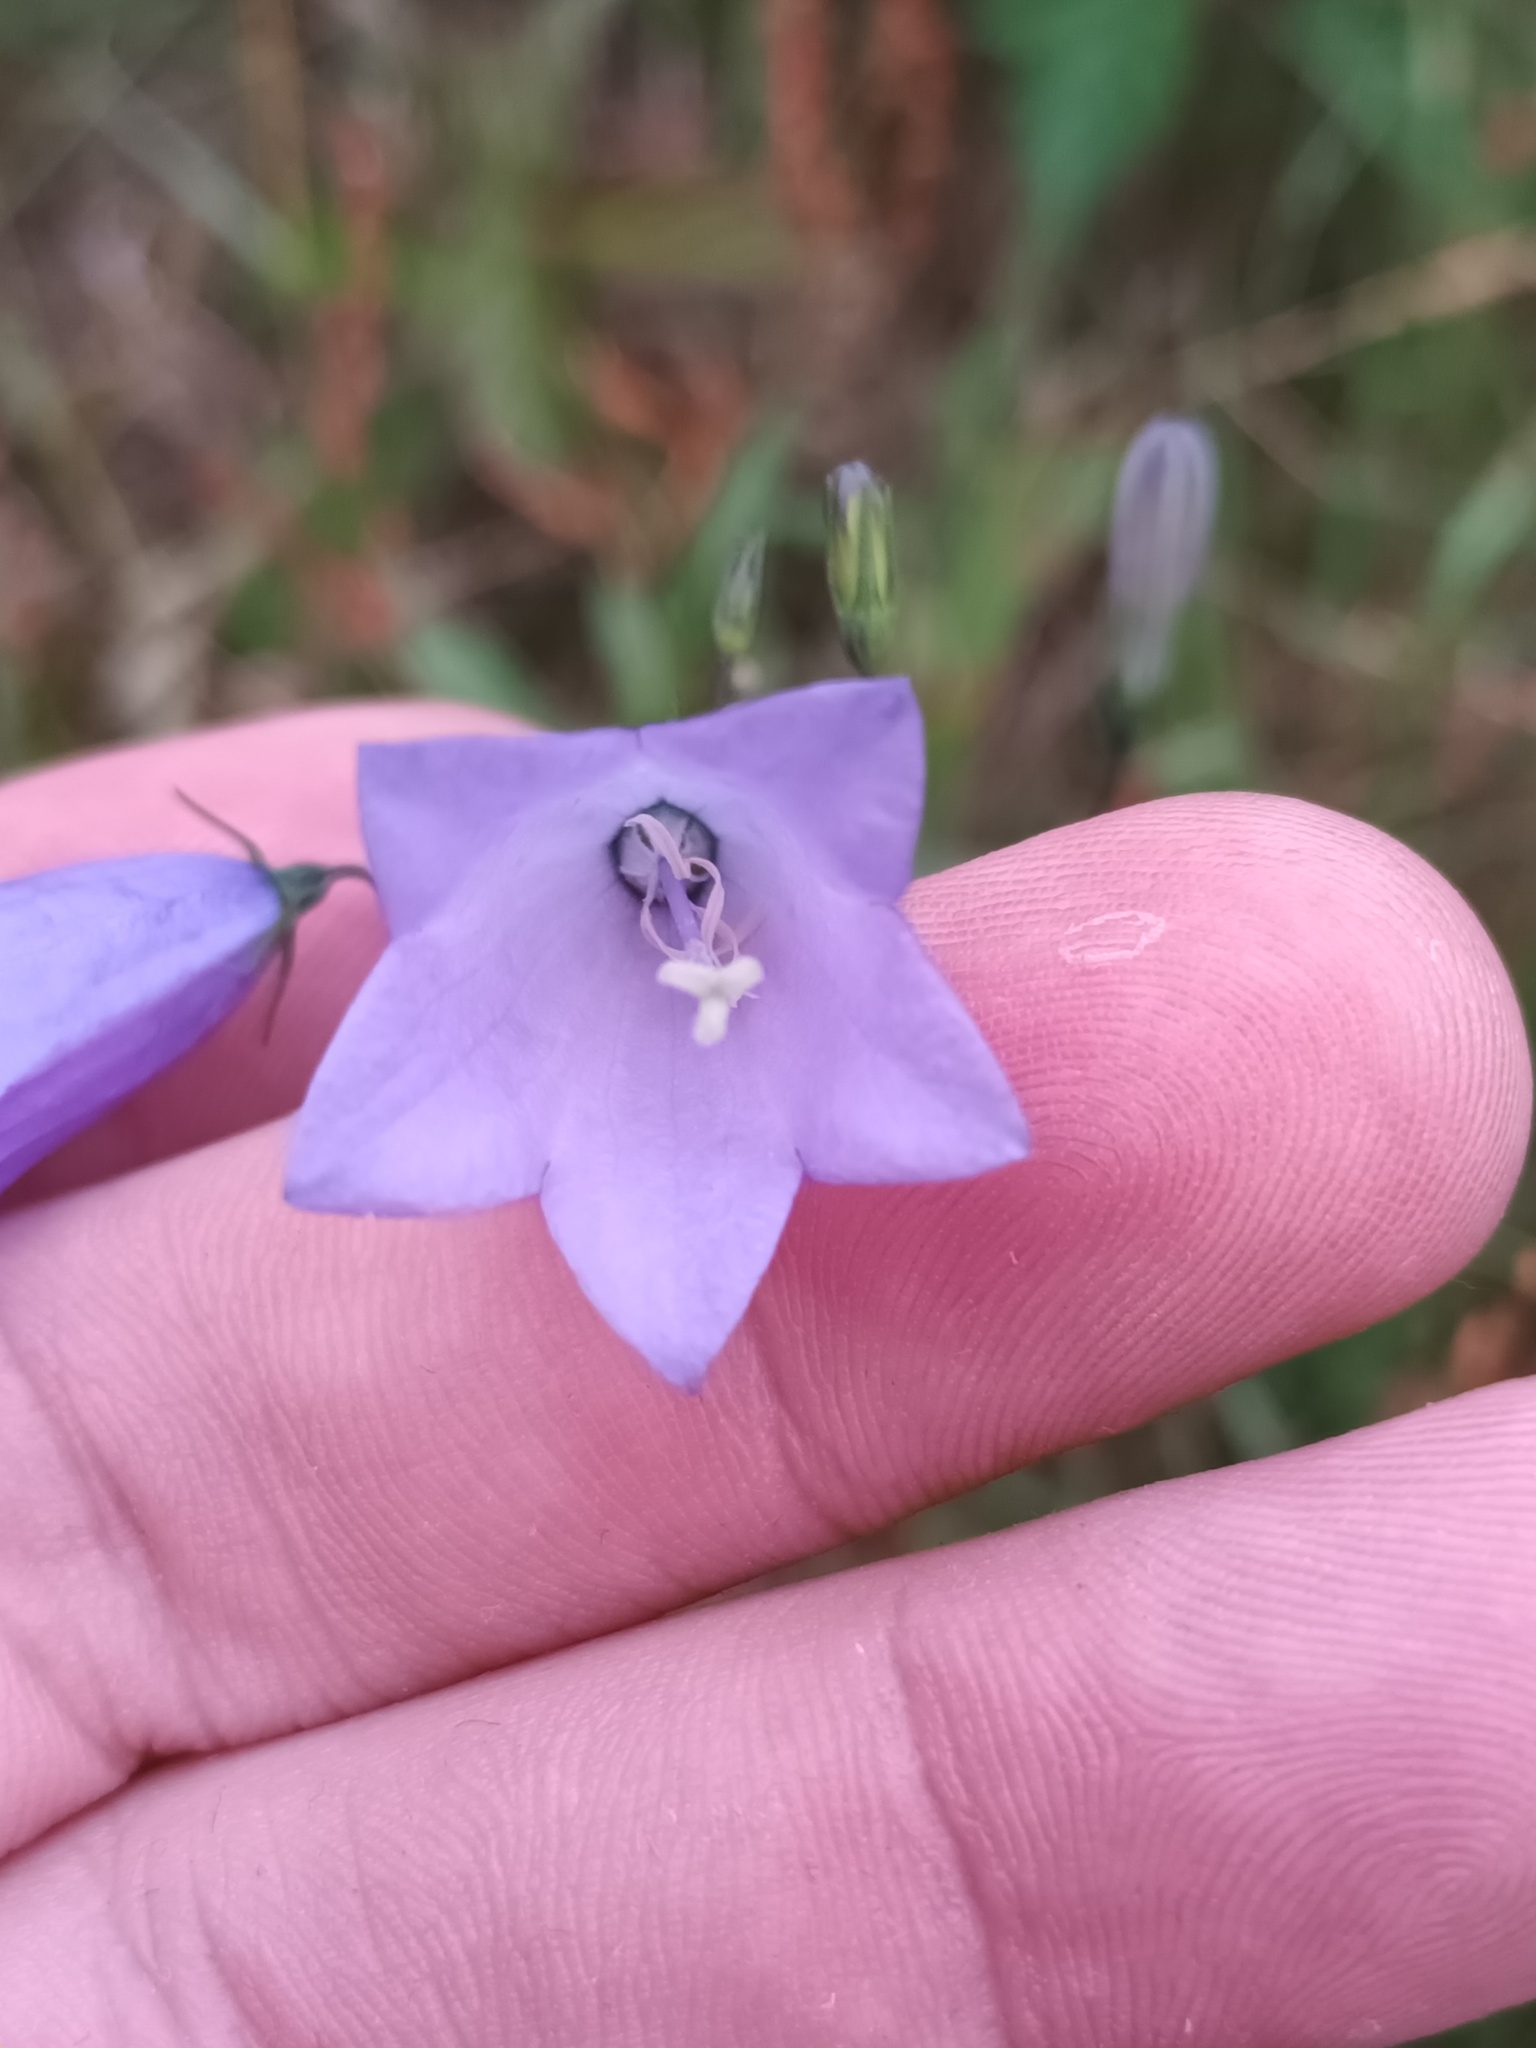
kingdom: Plantae
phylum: Tracheophyta
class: Magnoliopsida
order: Asterales
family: Campanulaceae
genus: Campanula
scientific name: Campanula rotundifolia
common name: Harebell
